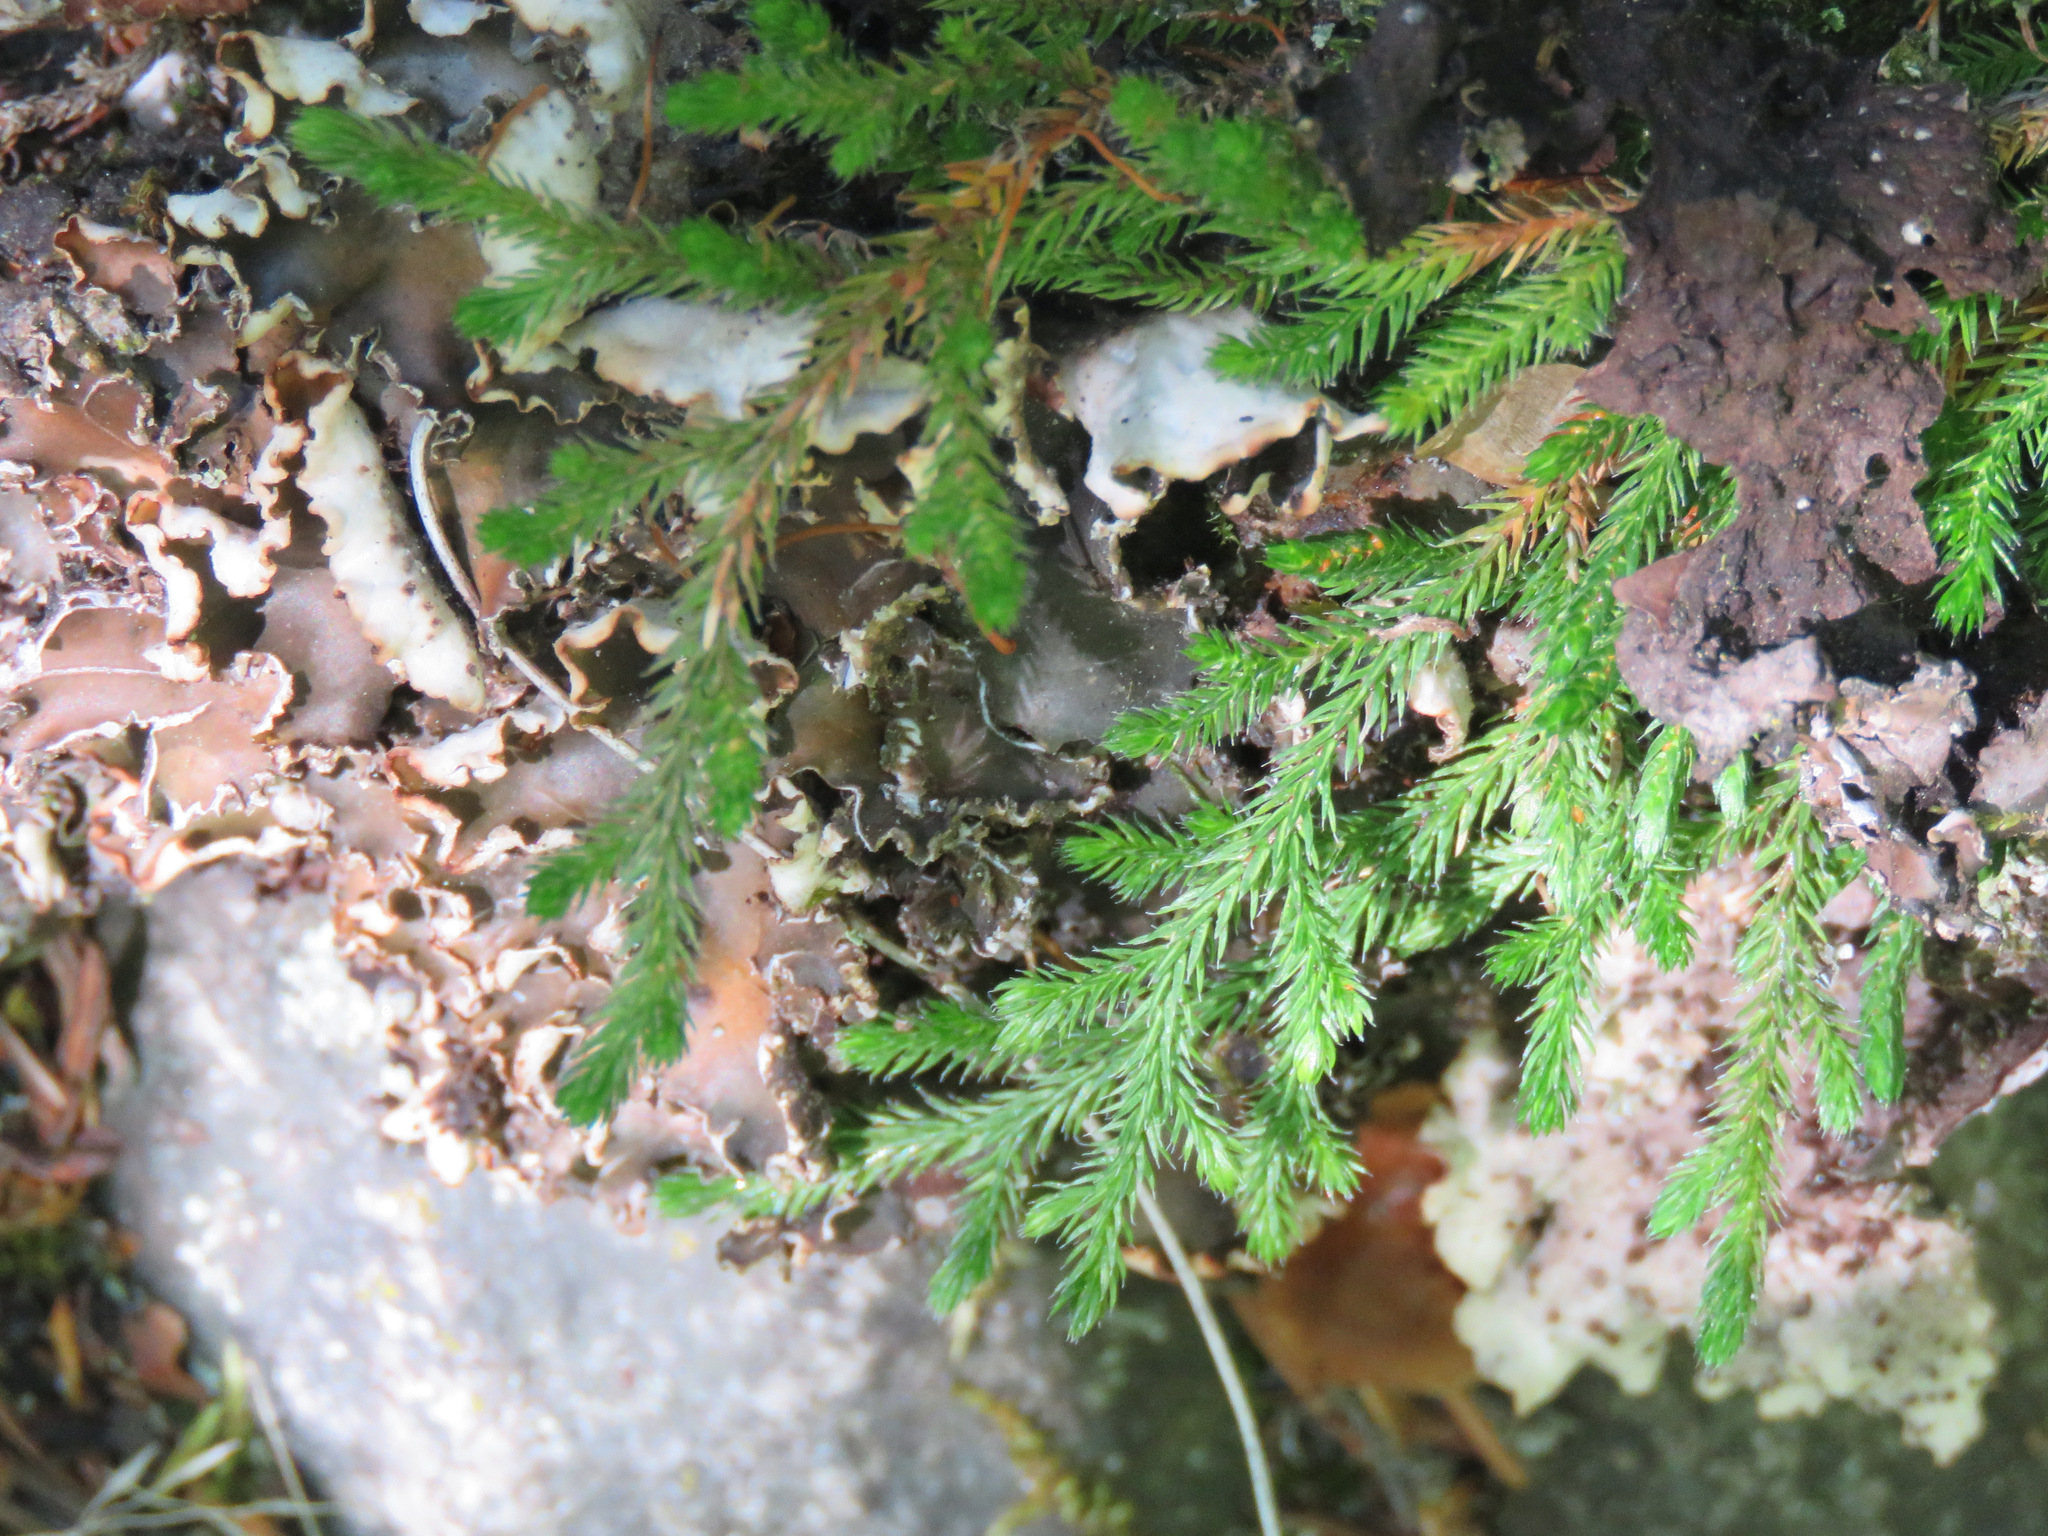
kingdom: Plantae
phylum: Tracheophyta
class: Lycopodiopsida
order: Selaginellales
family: Selaginellaceae
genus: Selaginella
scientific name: Selaginella wallacei
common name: Wallace's selaginella
